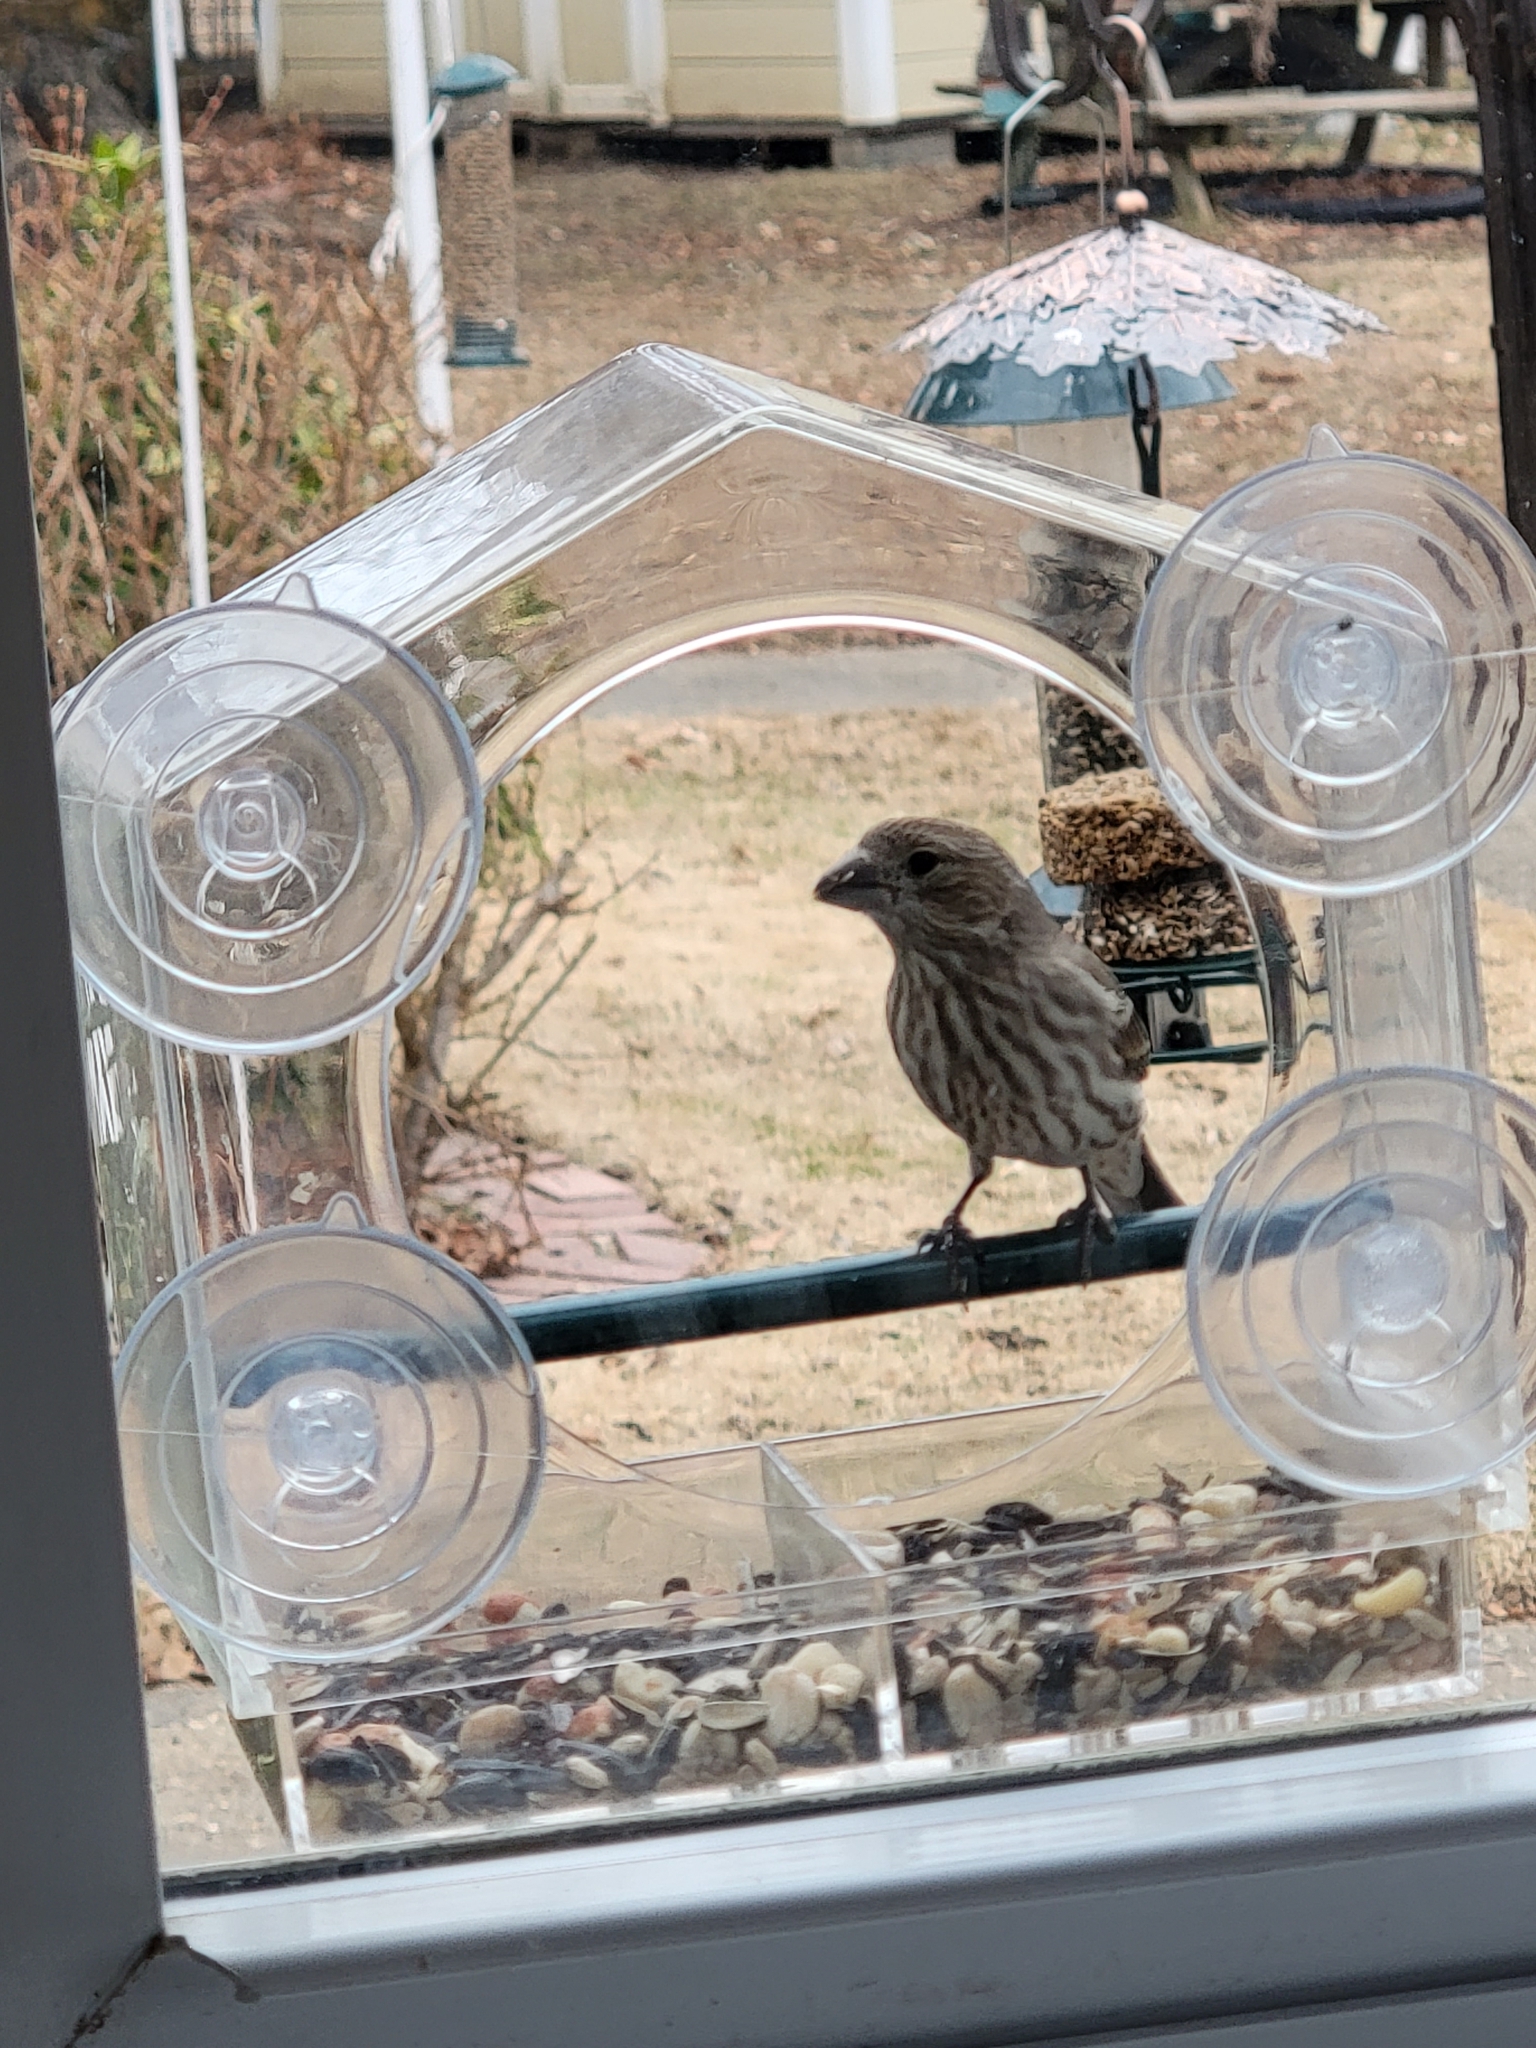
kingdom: Animalia
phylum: Chordata
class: Aves
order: Passeriformes
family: Fringillidae
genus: Haemorhous
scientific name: Haemorhous mexicanus
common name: House finch
